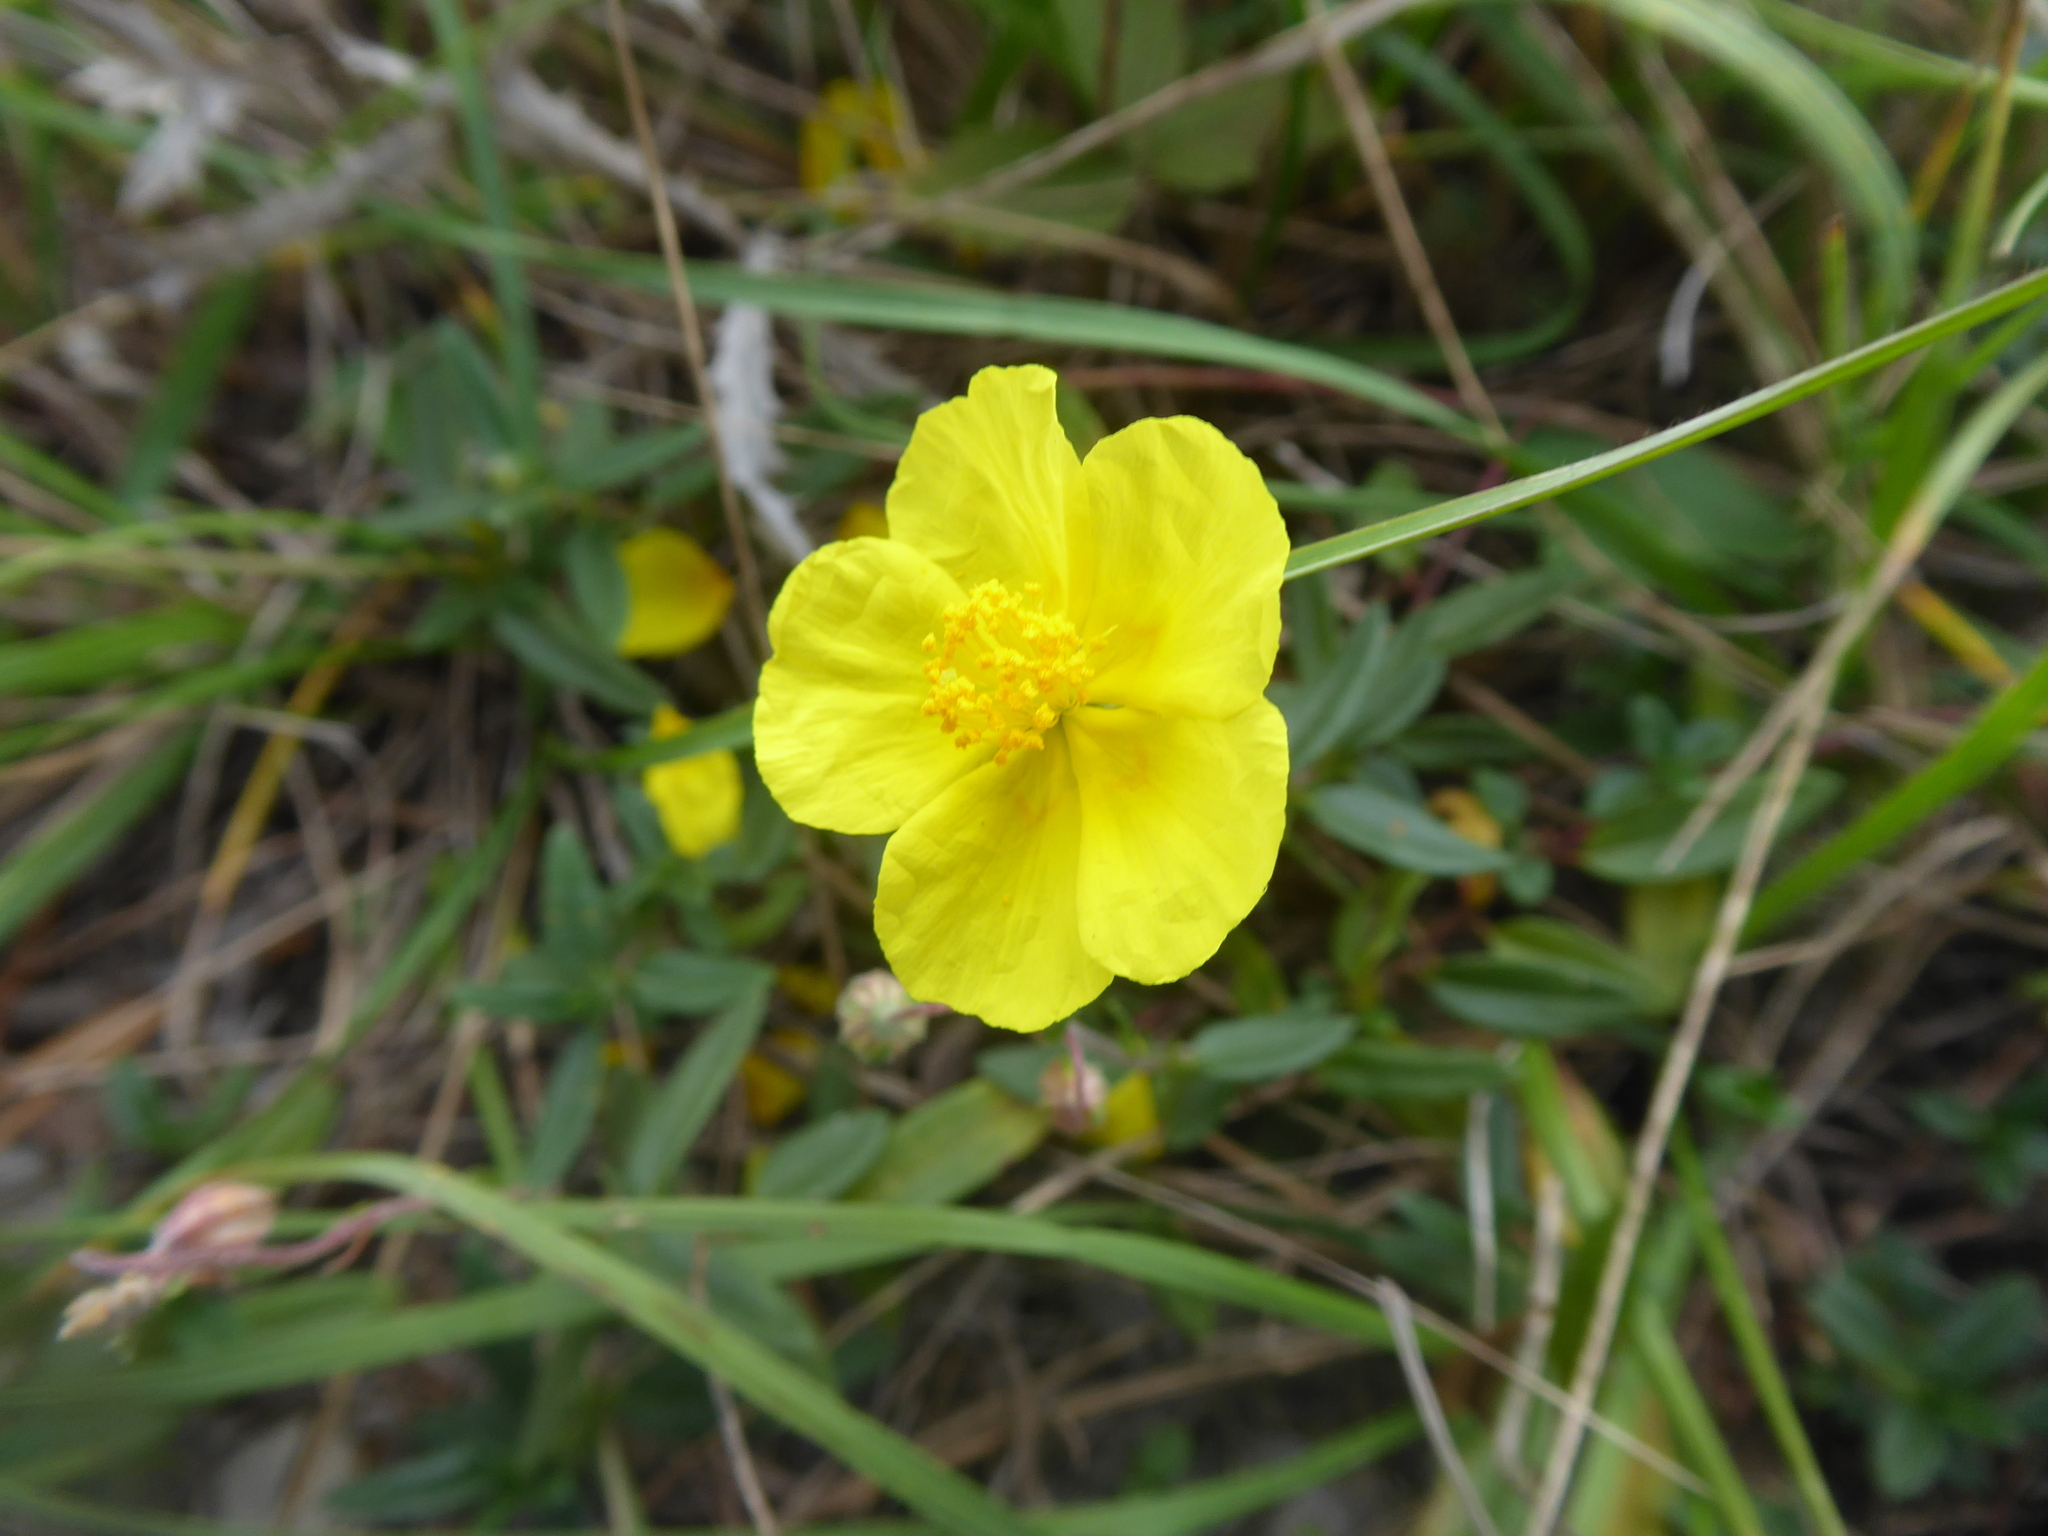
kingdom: Plantae
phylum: Tracheophyta
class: Magnoliopsida
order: Malvales
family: Cistaceae
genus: Helianthemum
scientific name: Helianthemum nummularium
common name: Common rock-rose
